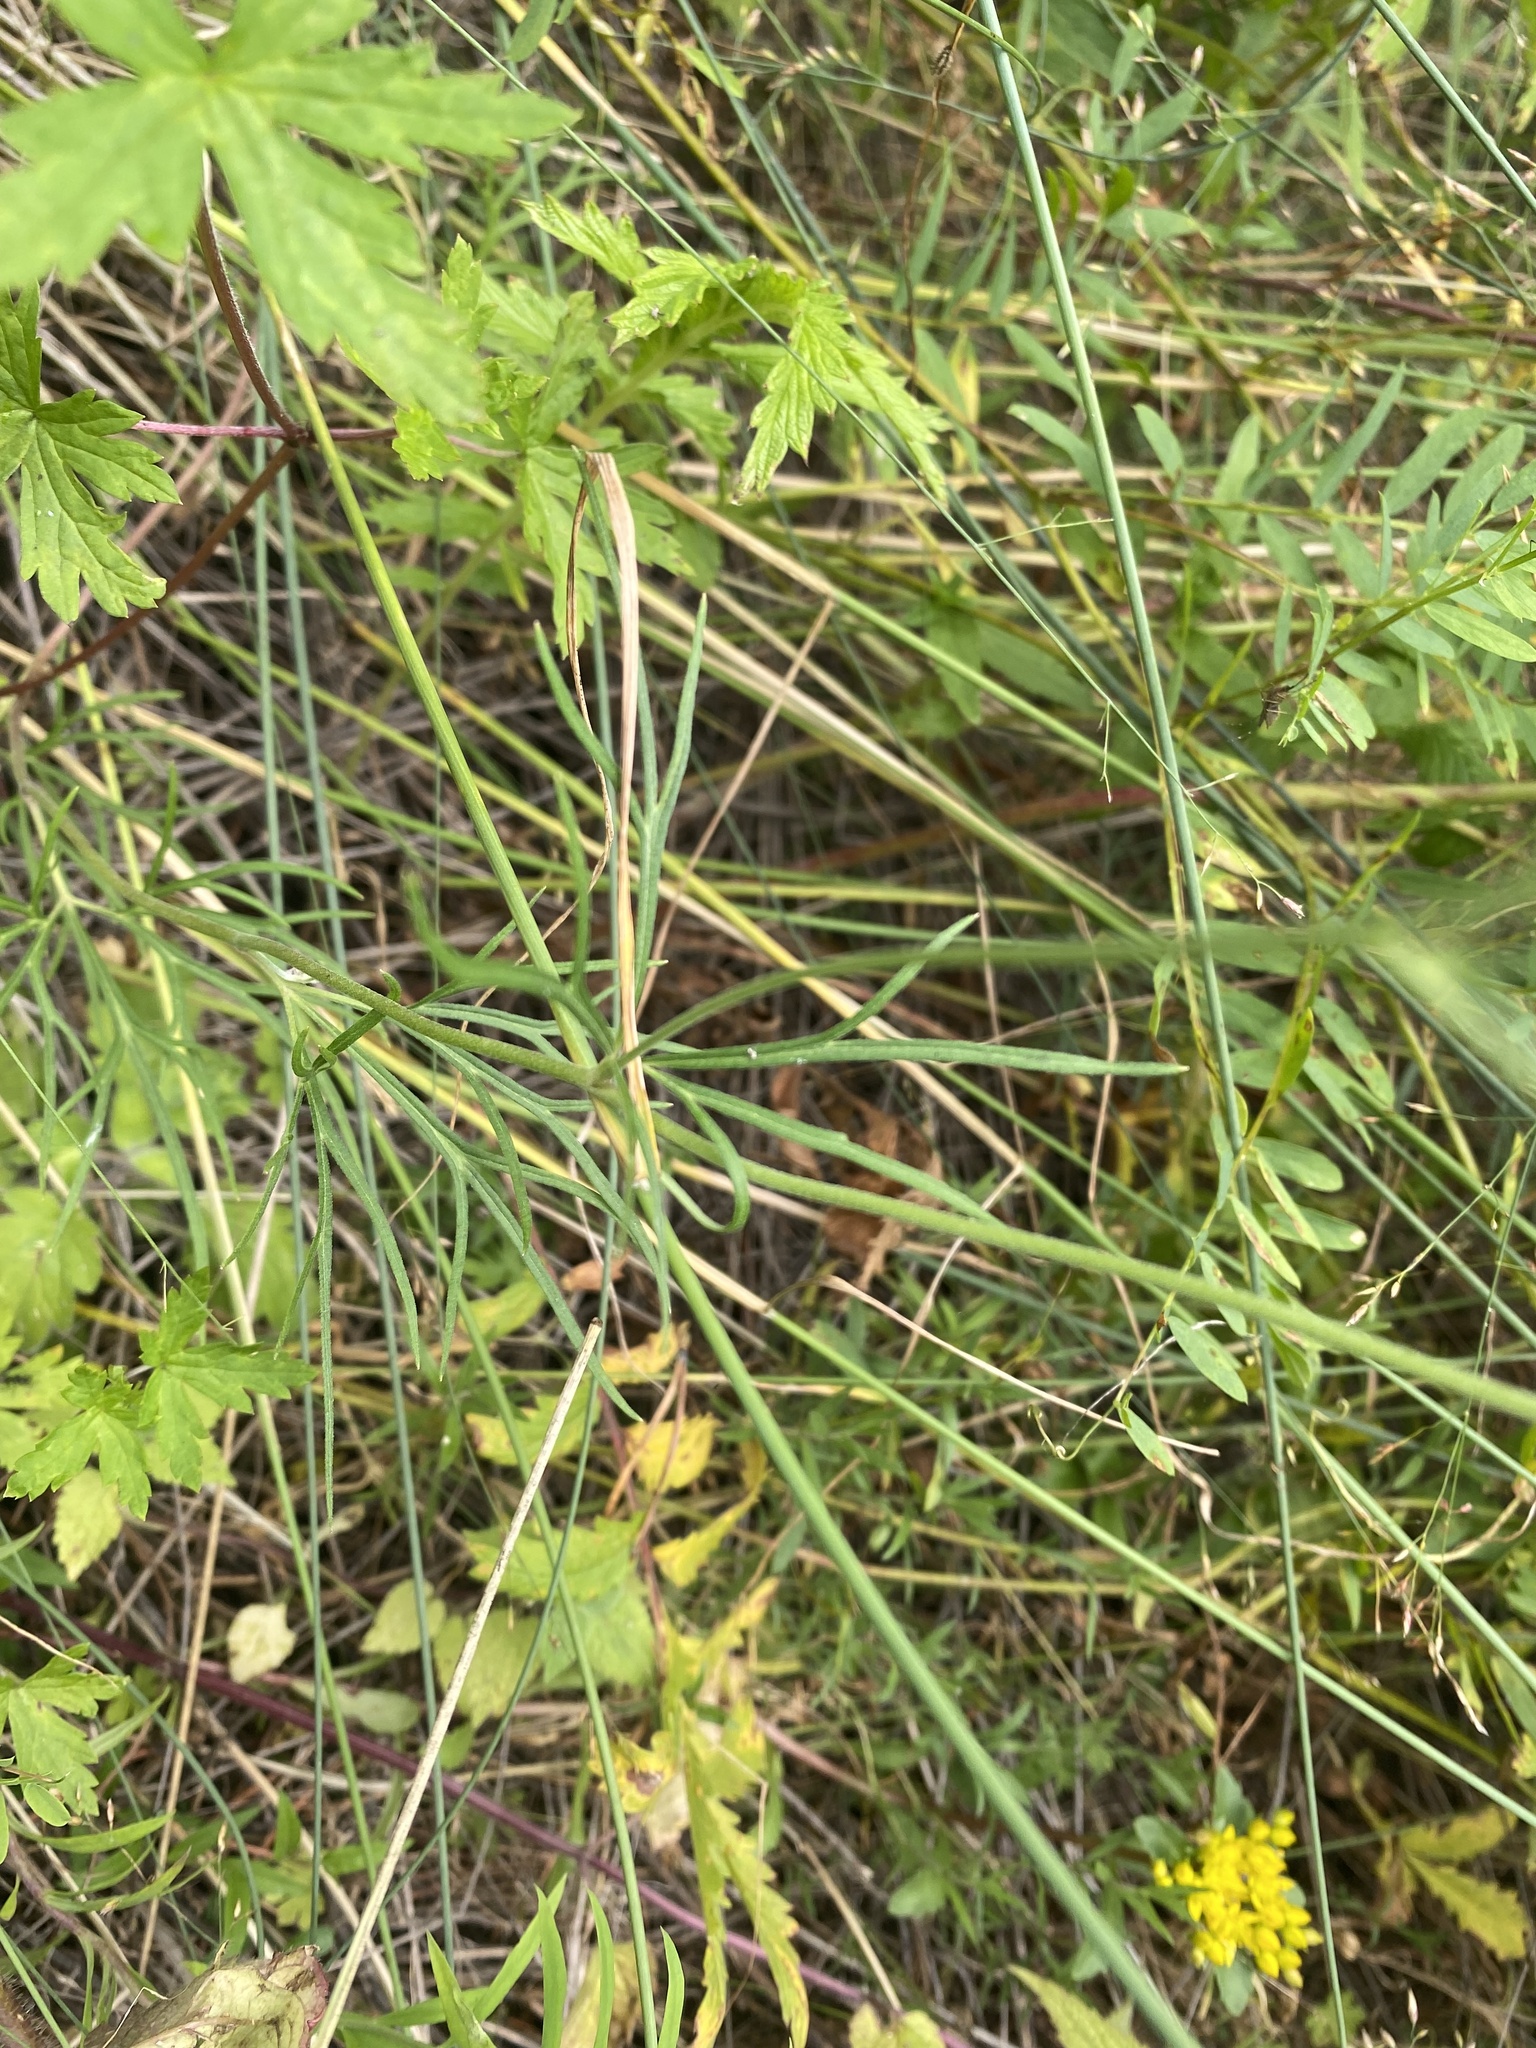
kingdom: Plantae
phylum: Tracheophyta
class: Magnoliopsida
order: Ranunculales
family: Ranunculaceae
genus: Delphinium
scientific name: Delphinium grandiflorum
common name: Siberian larkspur
